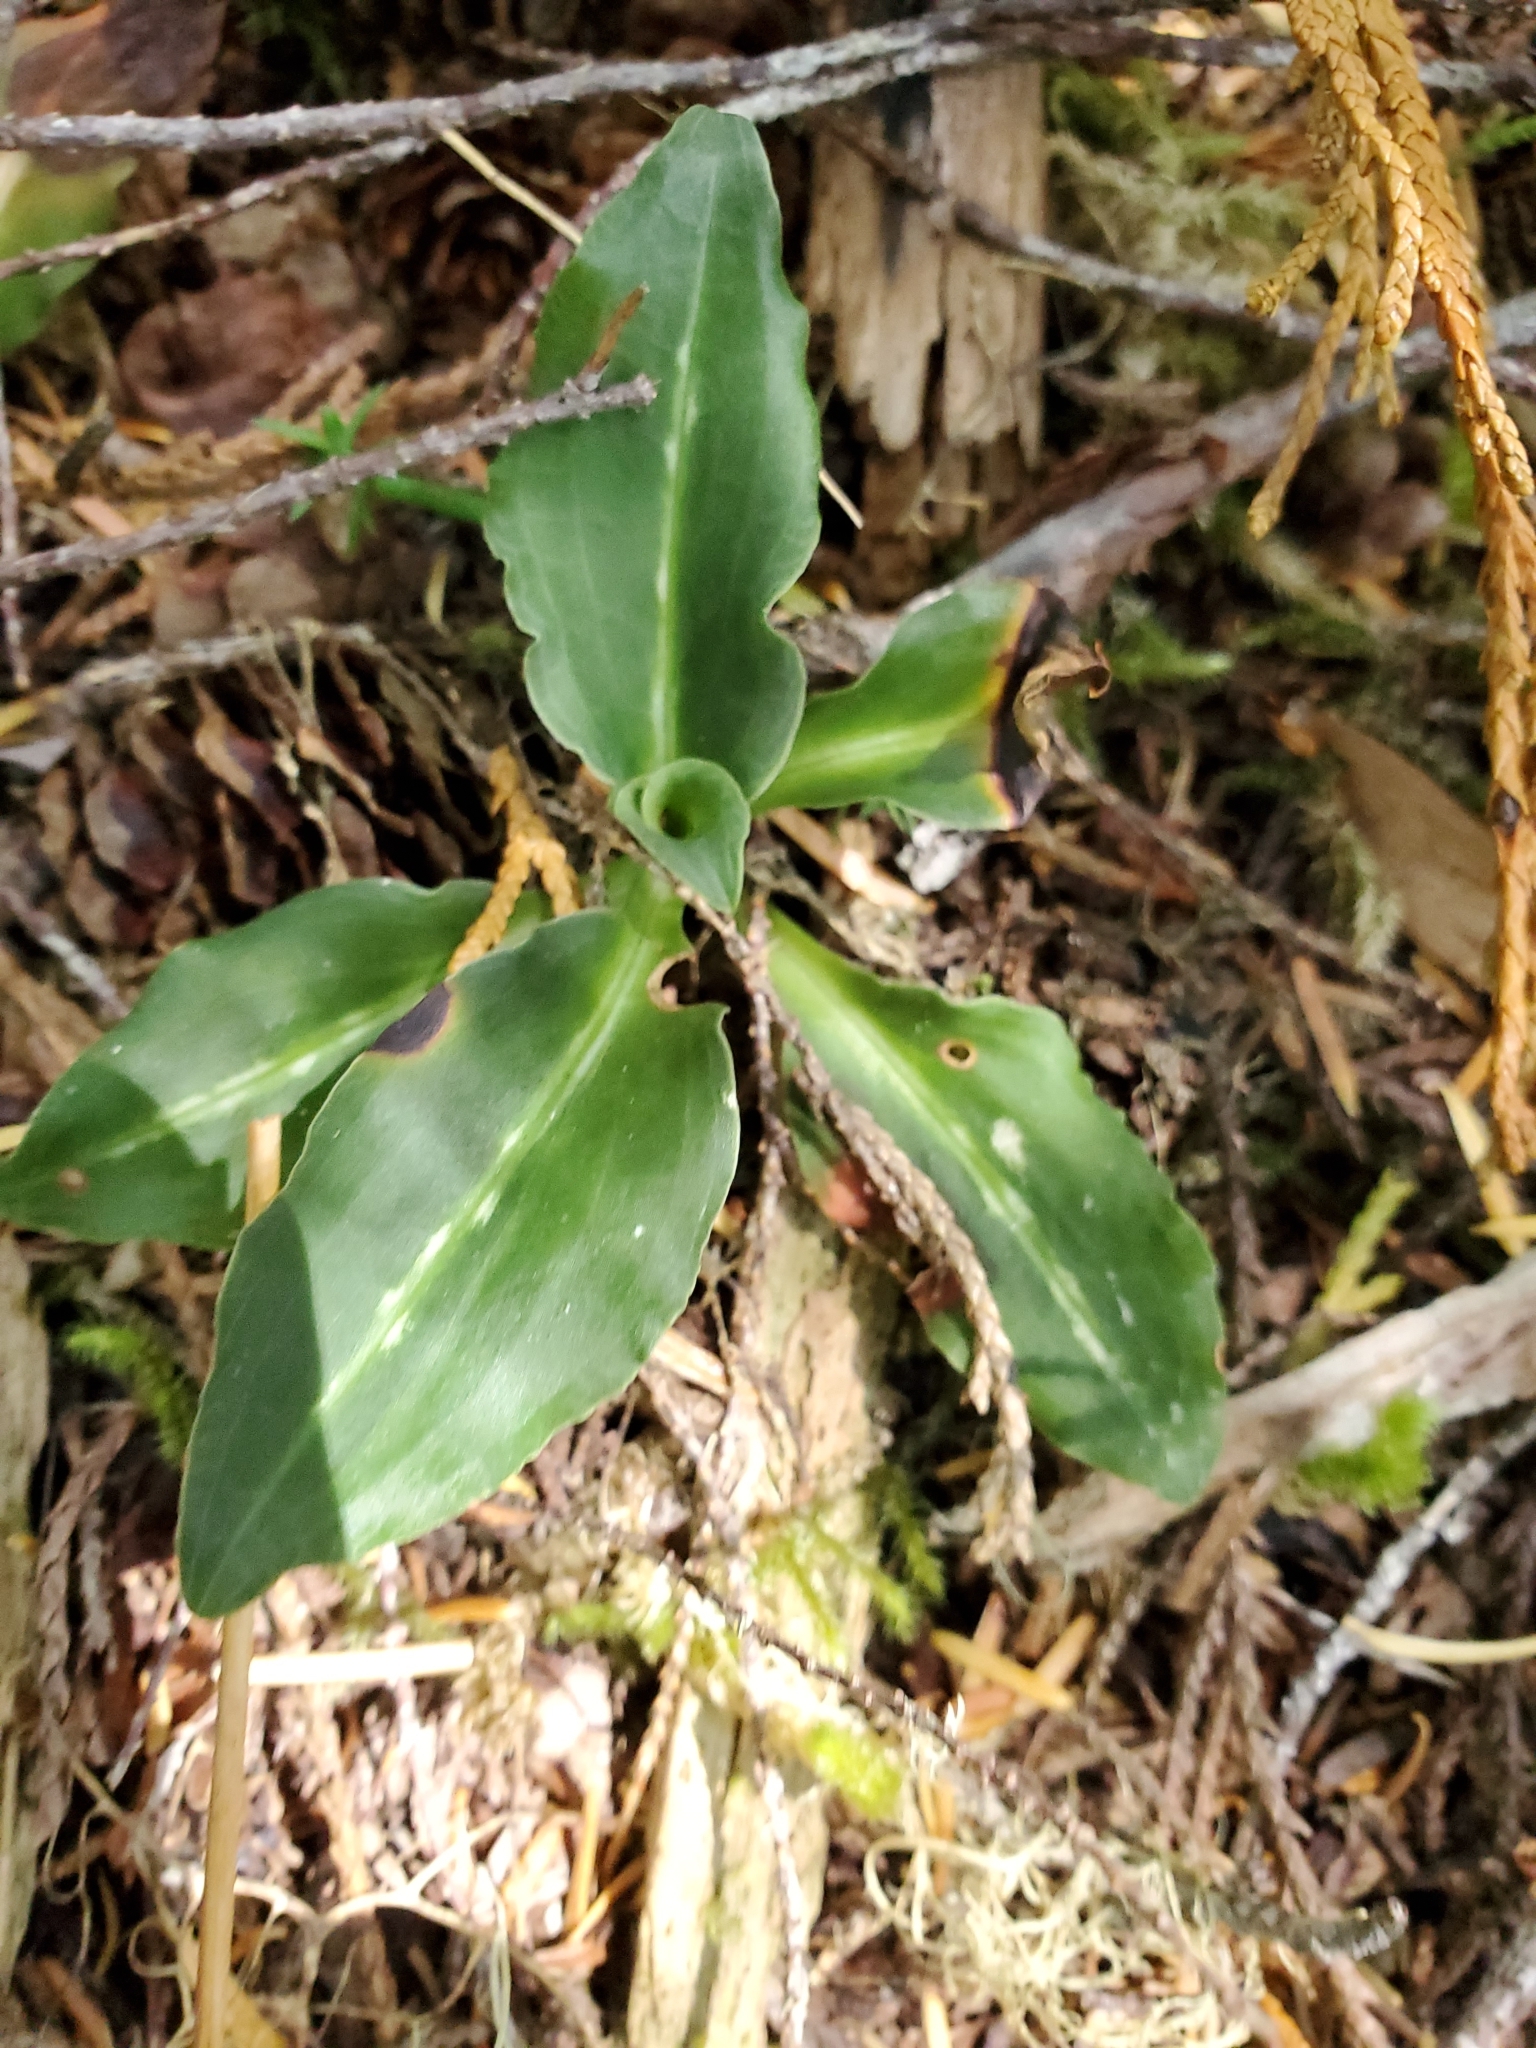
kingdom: Plantae
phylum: Tracheophyta
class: Liliopsida
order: Asparagales
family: Orchidaceae
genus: Goodyera
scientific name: Goodyera oblongifolia
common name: Giant rattlesnake-plantain
